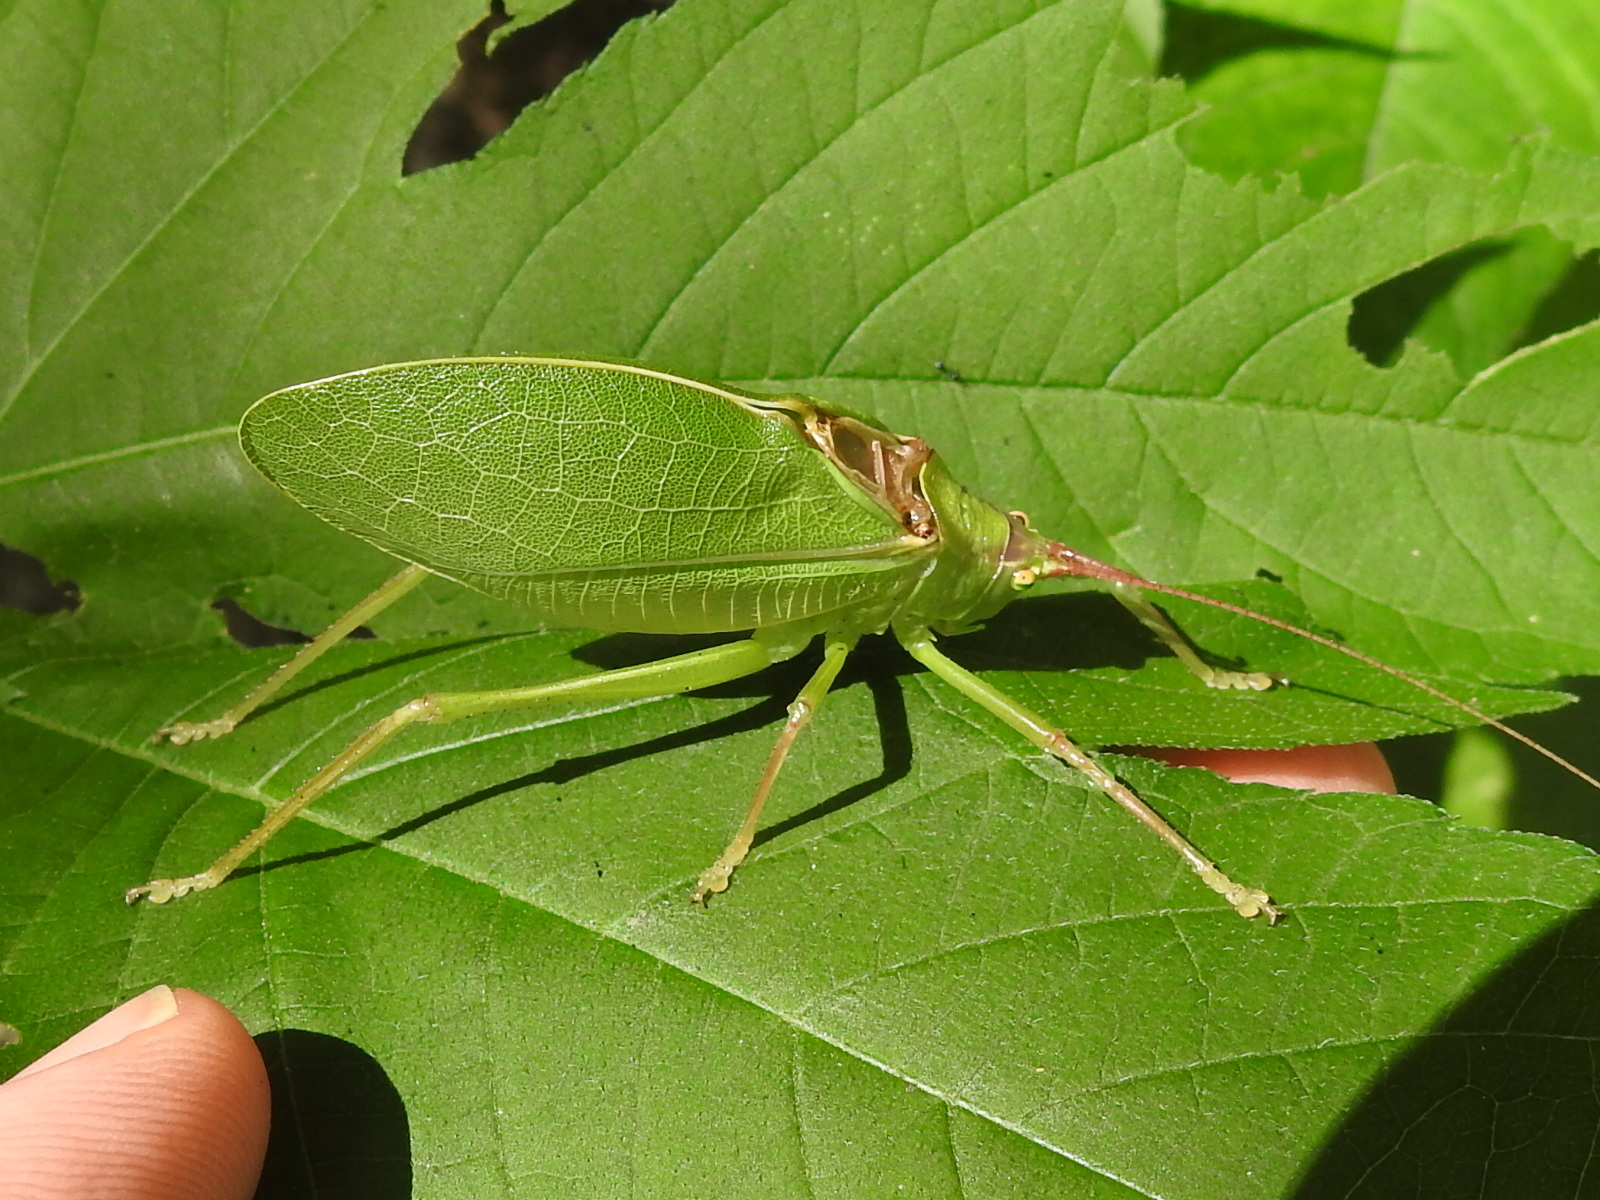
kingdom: Animalia
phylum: Arthropoda
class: Insecta
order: Orthoptera
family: Tettigoniidae
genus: Pterophylla
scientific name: Pterophylla camellifolia
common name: Common true katydid
